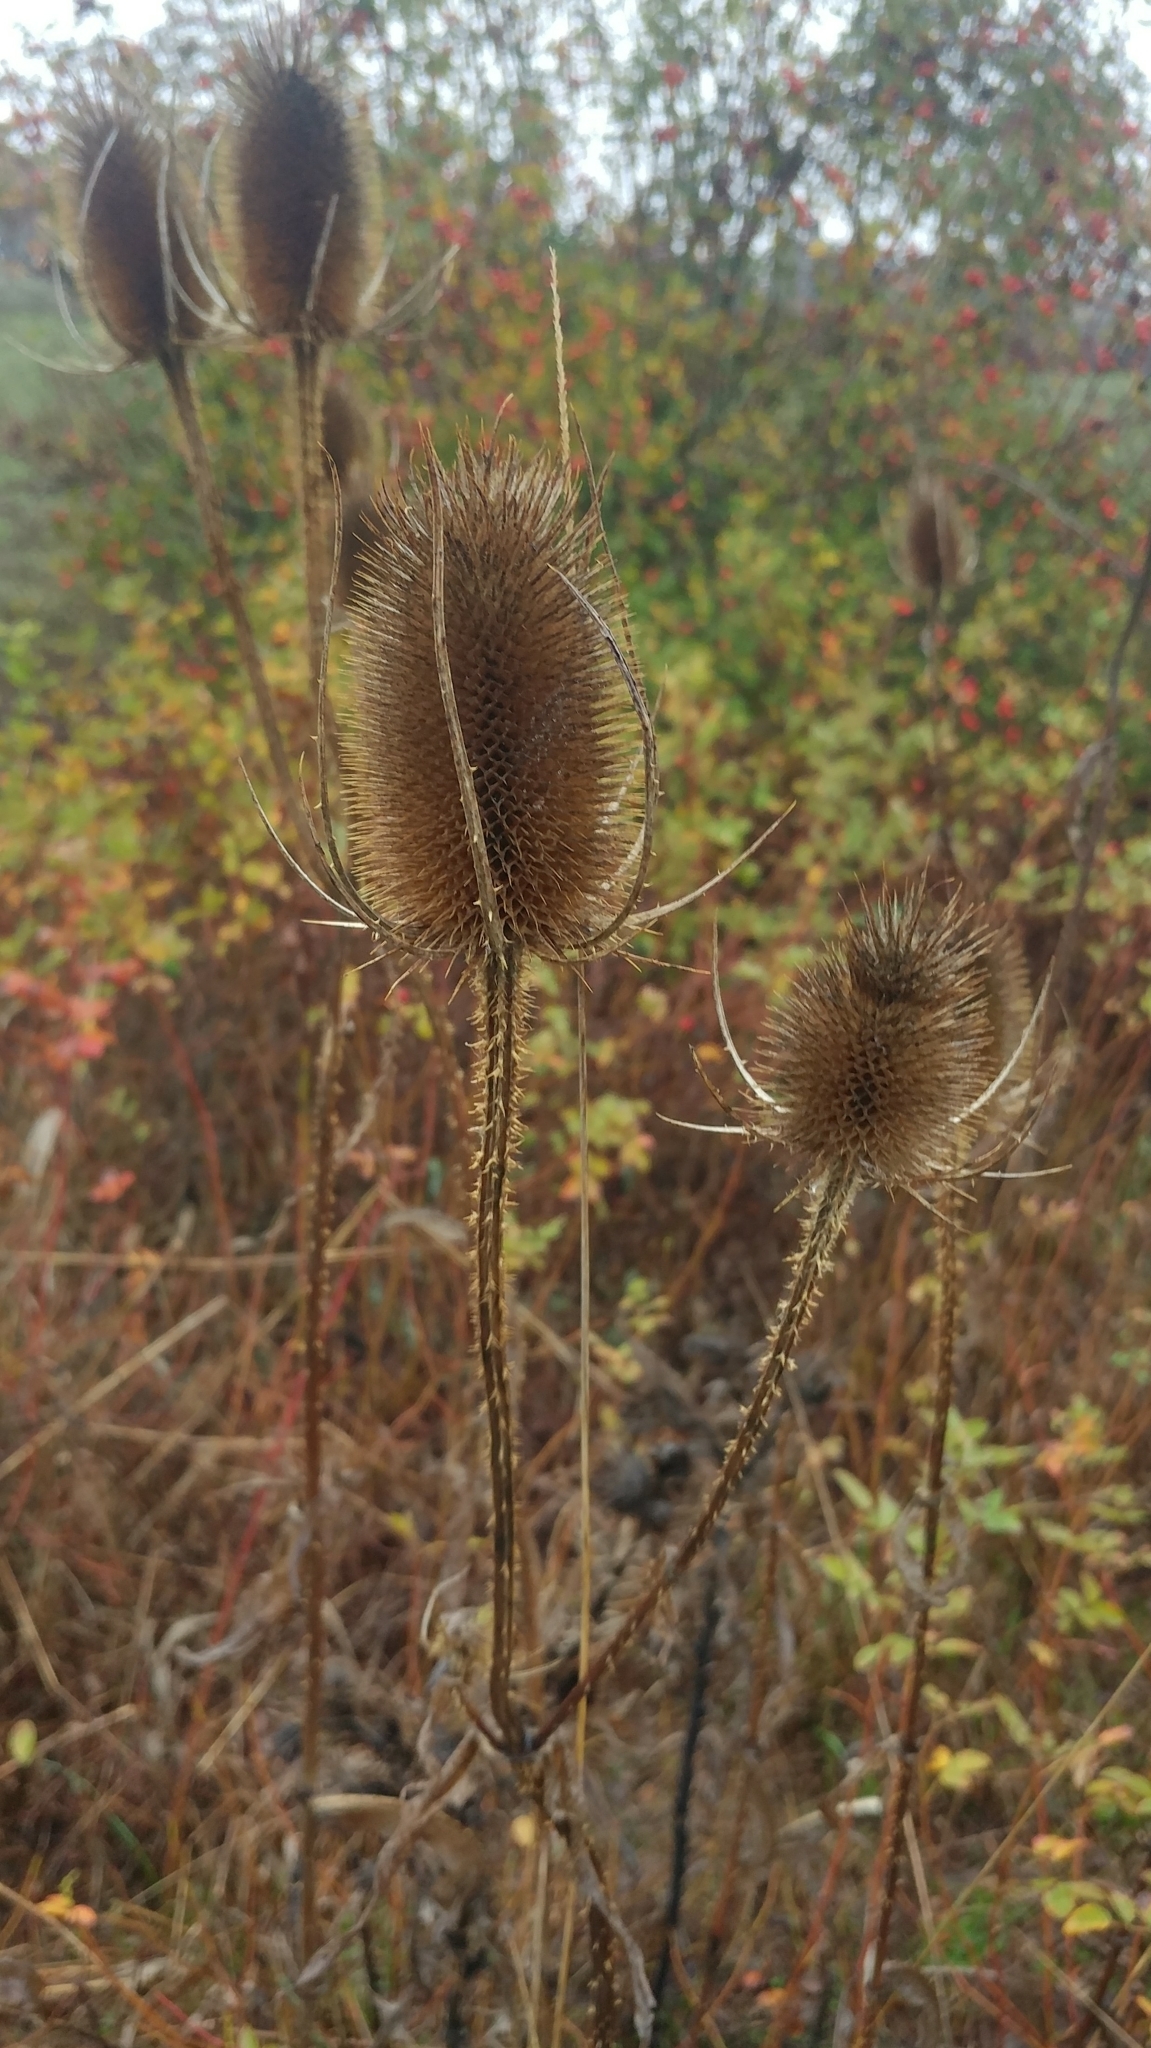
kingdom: Plantae
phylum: Tracheophyta
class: Magnoliopsida
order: Dipsacales
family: Caprifoliaceae
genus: Dipsacus
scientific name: Dipsacus fullonum
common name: Teasel
